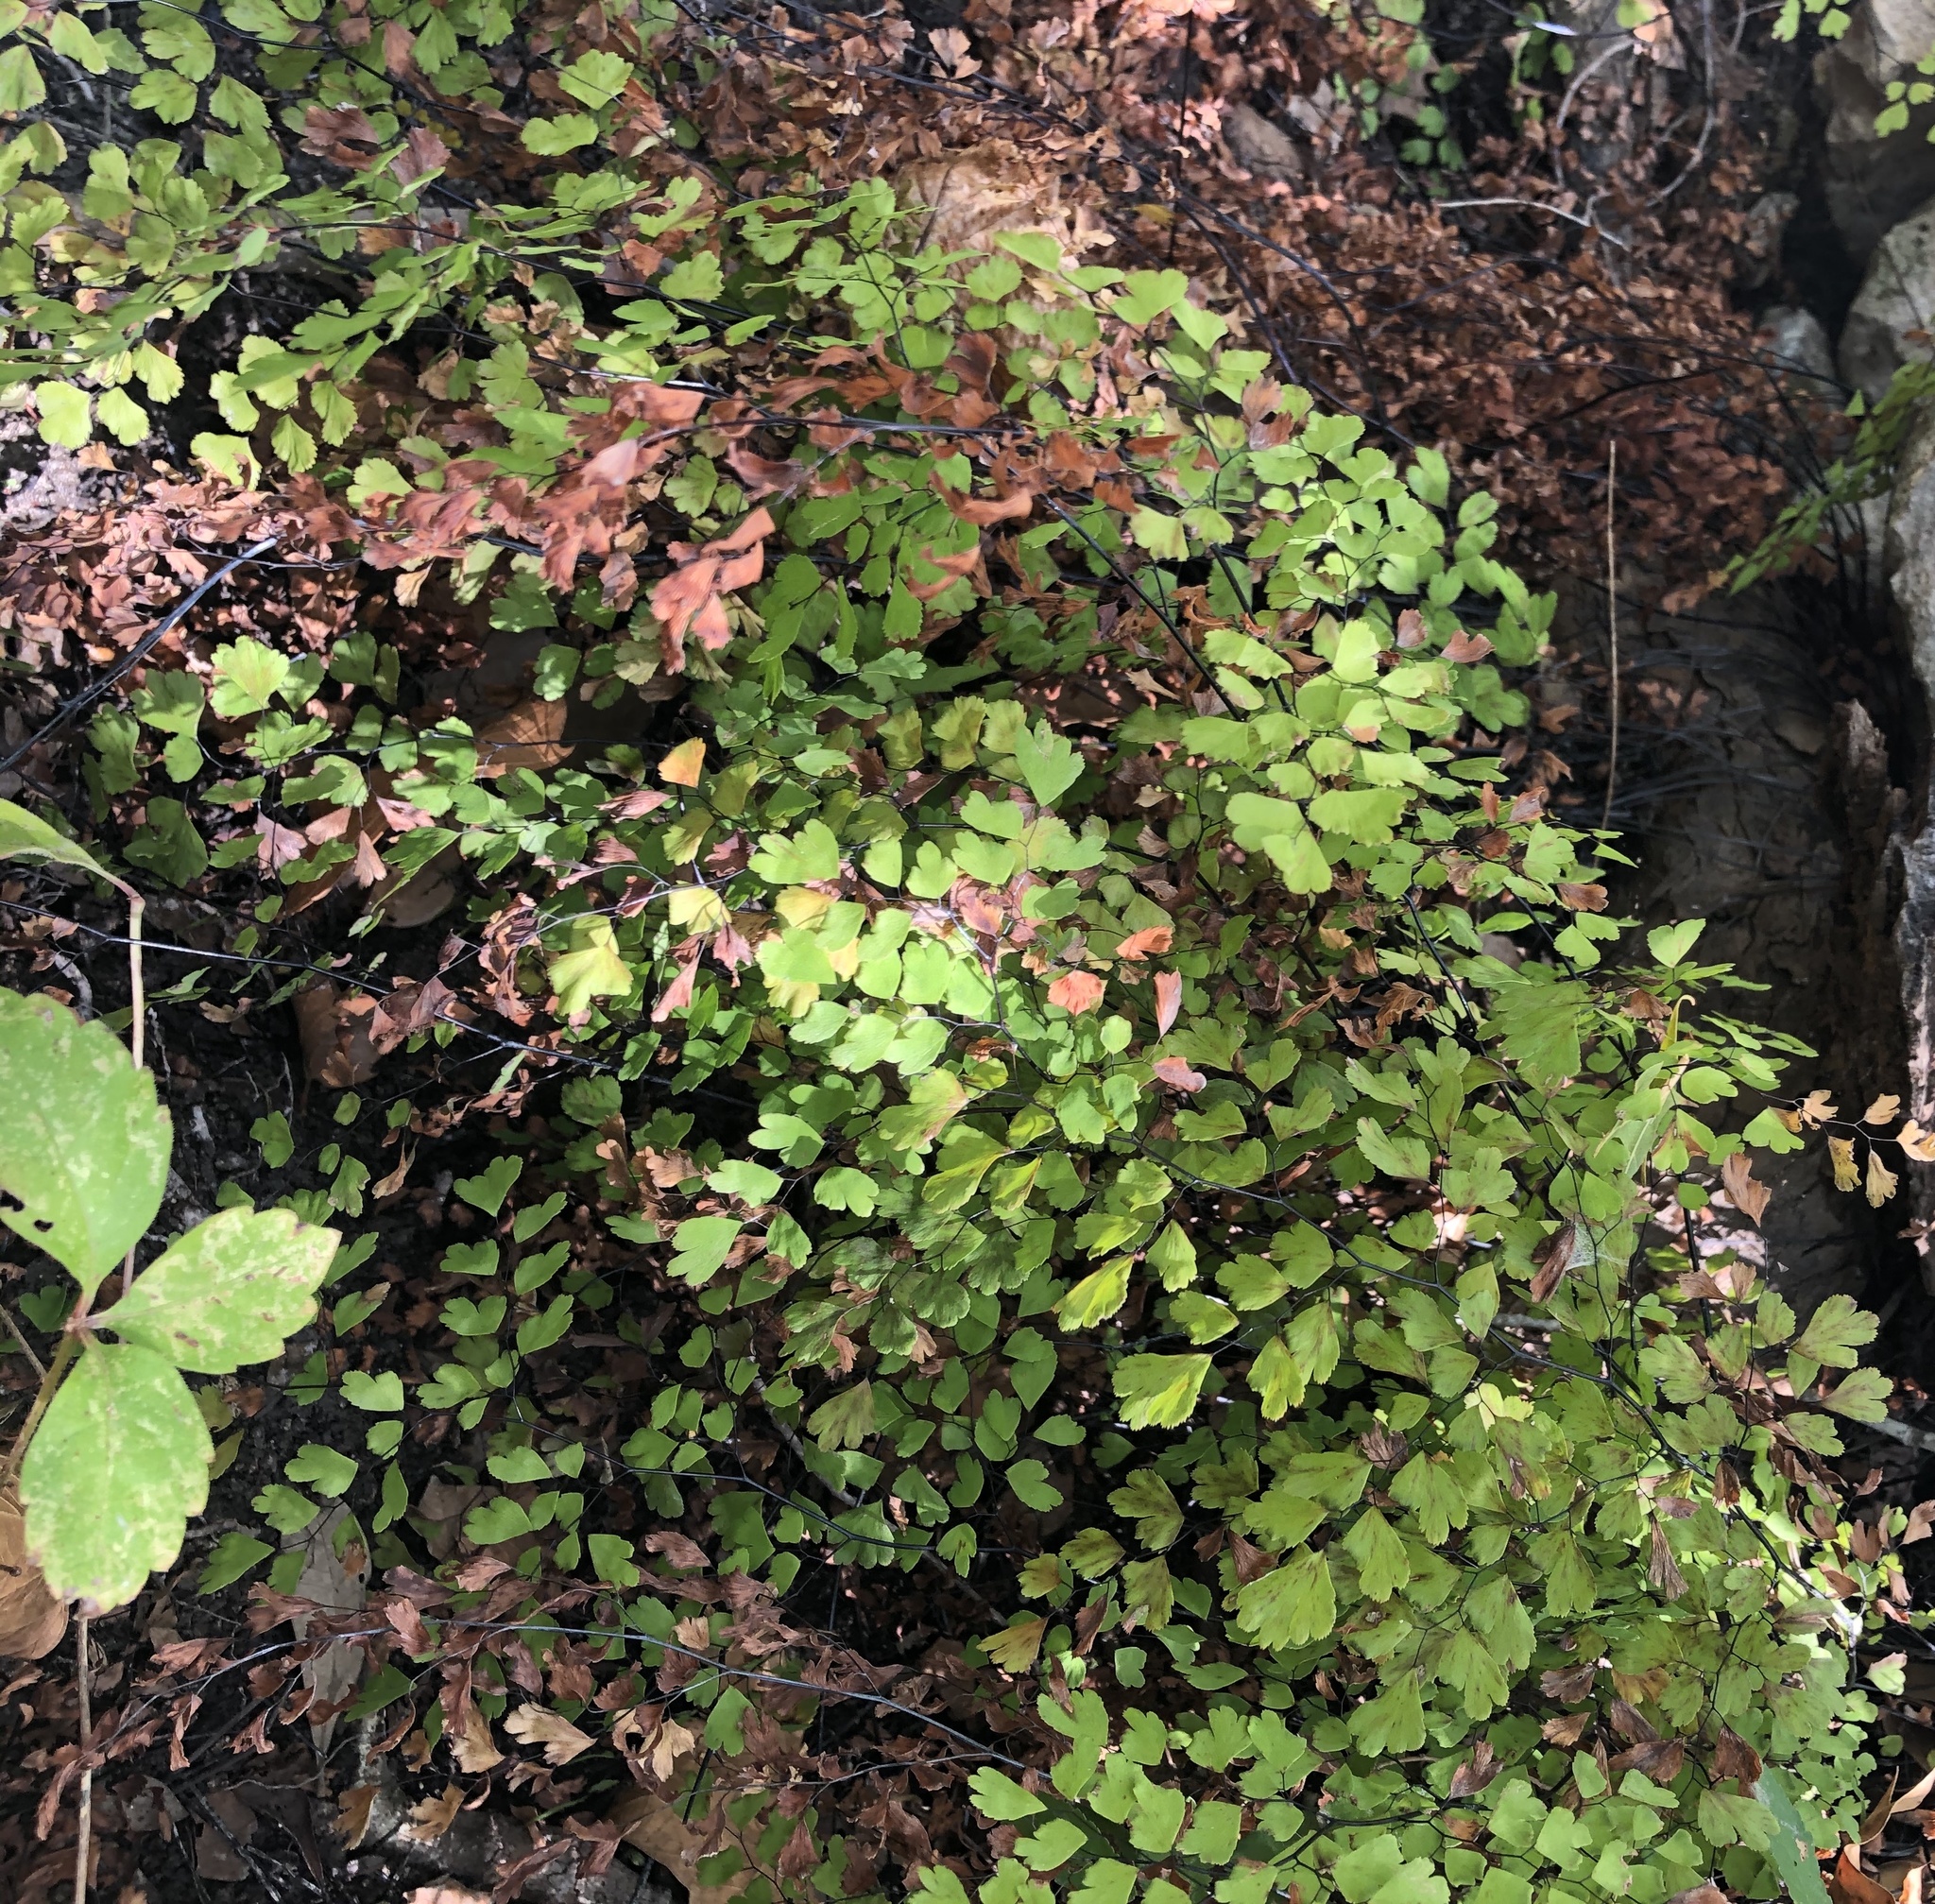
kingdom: Plantae
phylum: Tracheophyta
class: Polypodiopsida
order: Polypodiales
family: Pteridaceae
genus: Adiantum
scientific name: Adiantum capillus-veneris
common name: Maidenhair fern
